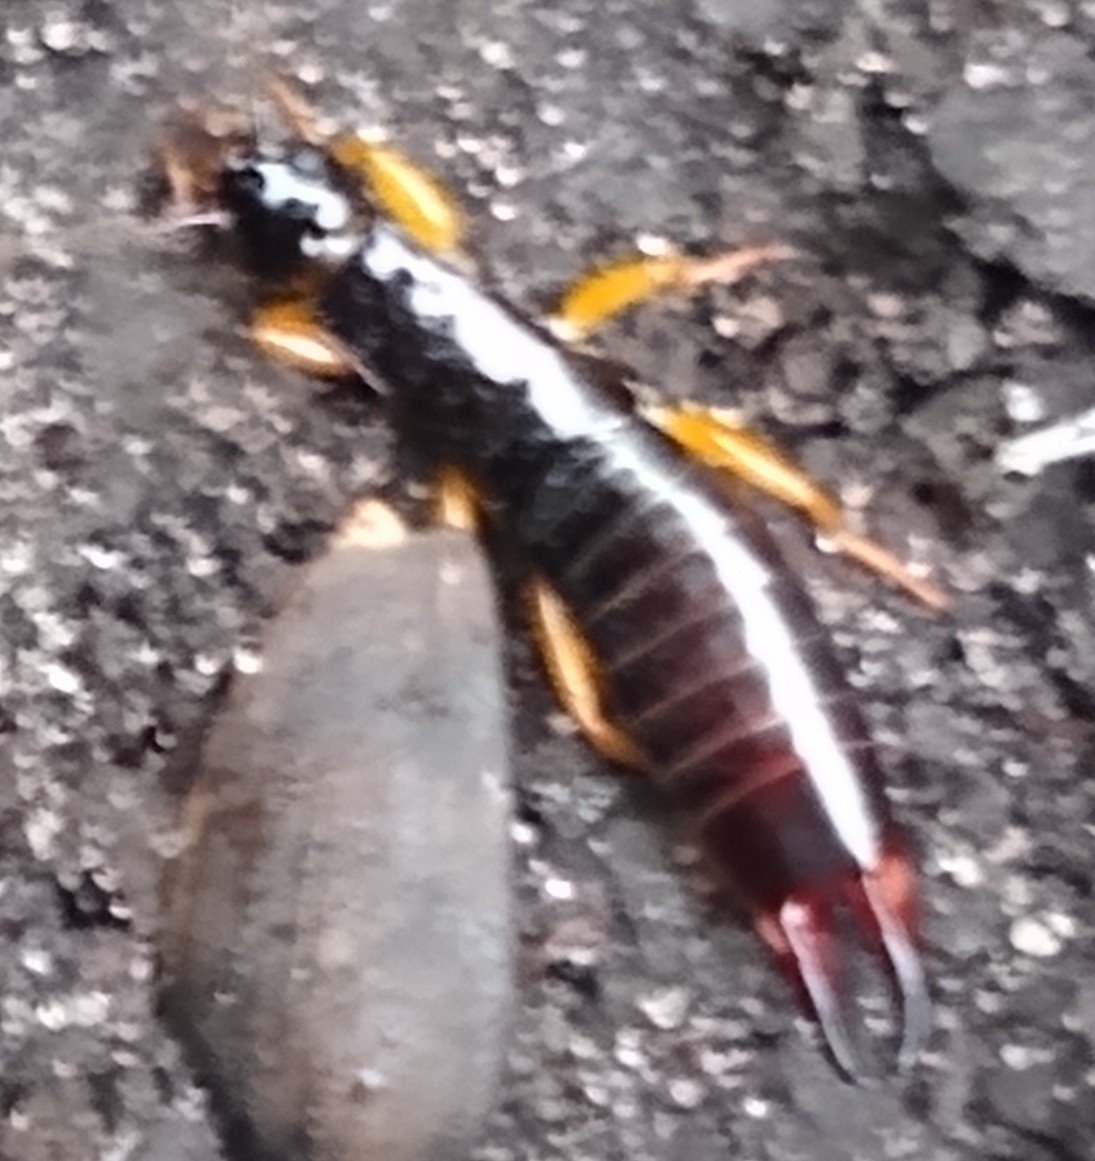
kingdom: Animalia
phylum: Arthropoda
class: Insecta
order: Dermaptera
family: Anisolabididae
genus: Euborellia
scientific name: Euborellia arcanum
